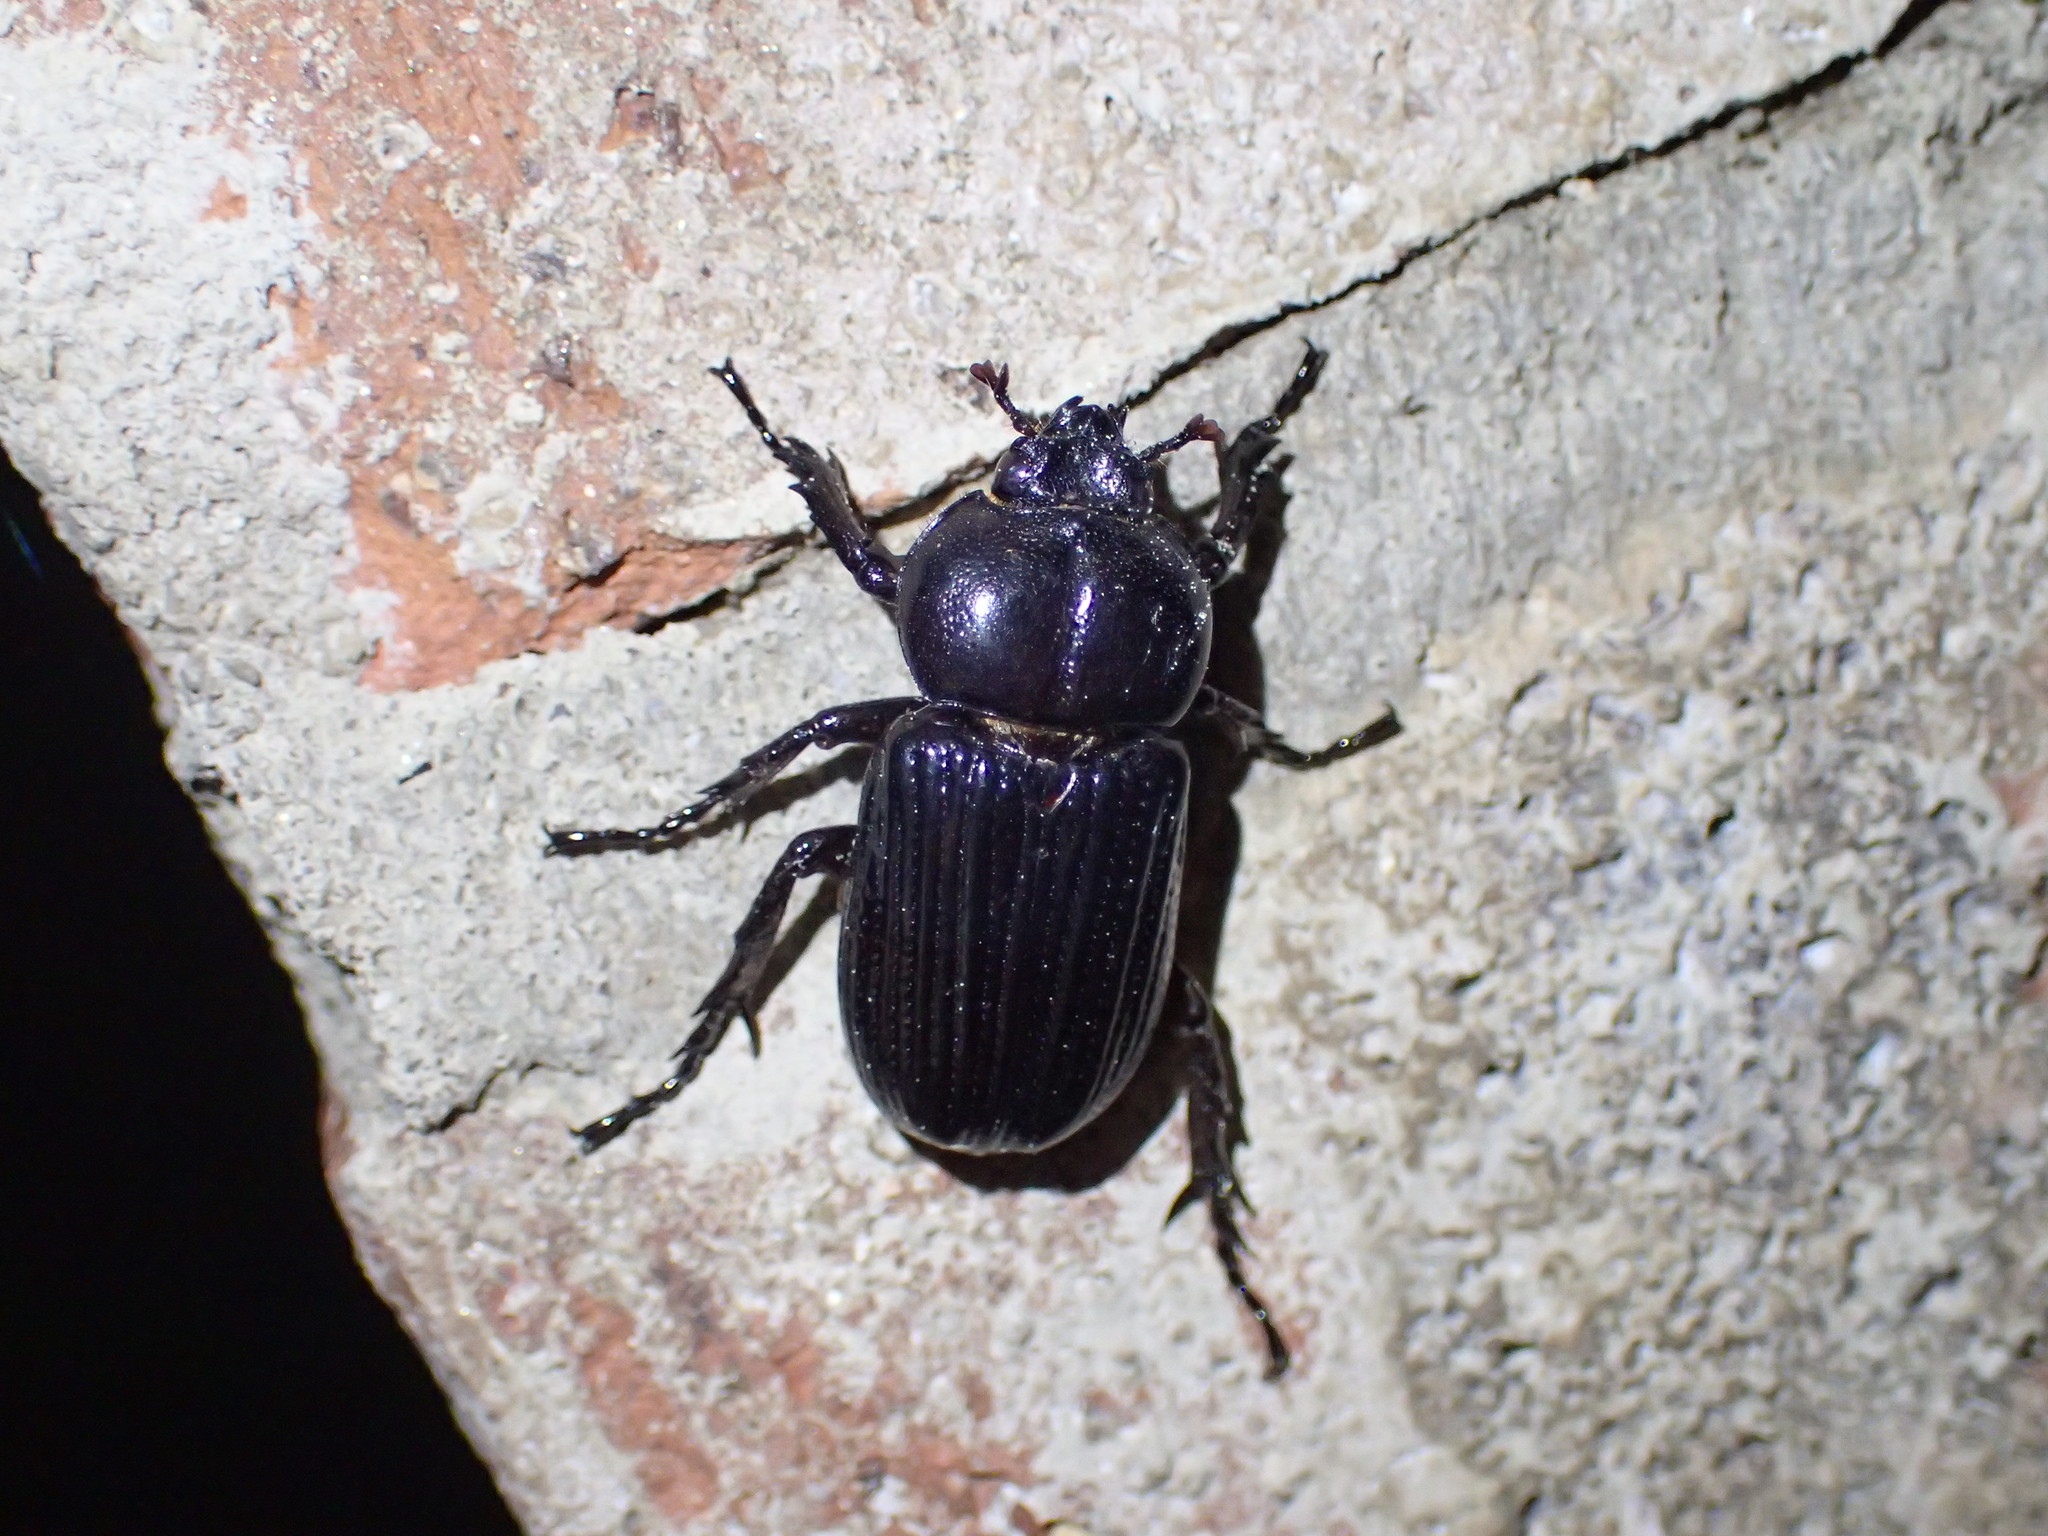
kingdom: Animalia
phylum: Arthropoda
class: Insecta
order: Coleoptera
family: Scarabaeidae
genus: Phileurus
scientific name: Phileurus valgus
